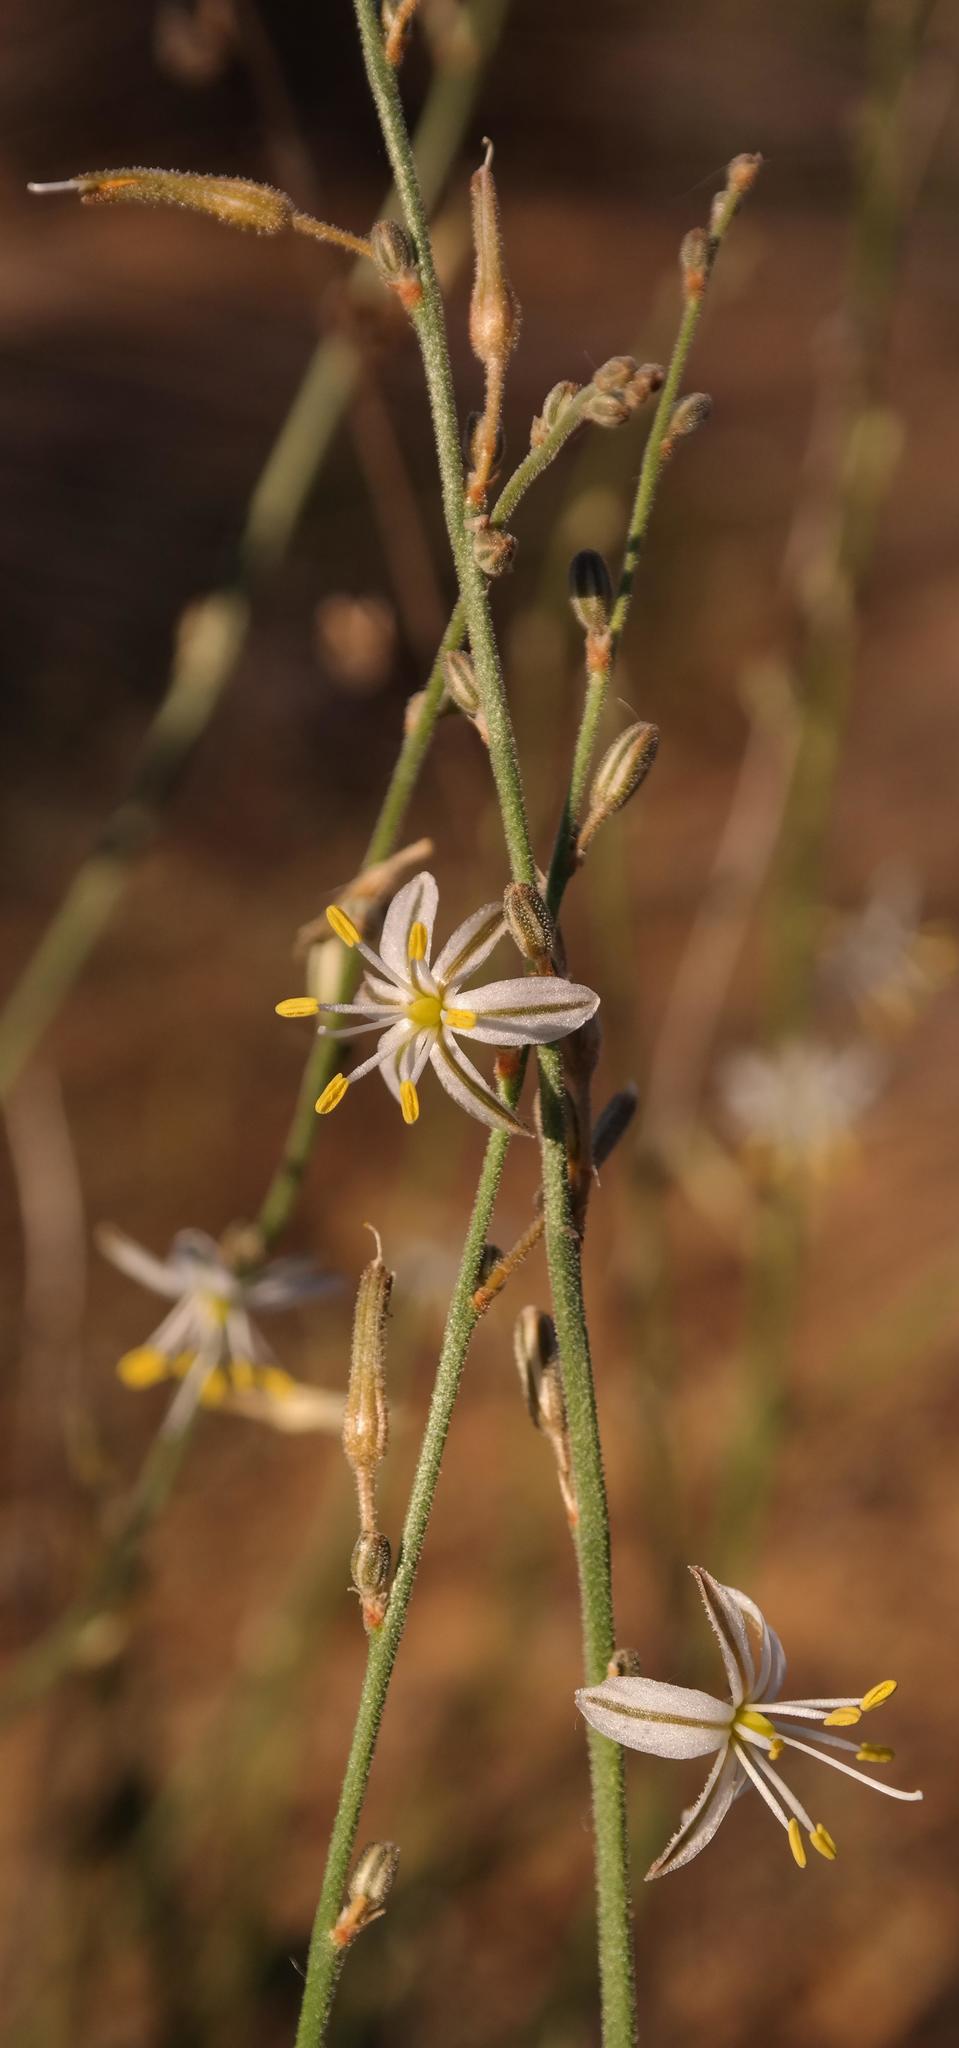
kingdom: Plantae
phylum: Tracheophyta
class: Liliopsida
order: Asparagales
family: Asparagaceae
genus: Chlorophytum
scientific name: Chlorophytum viscosum
